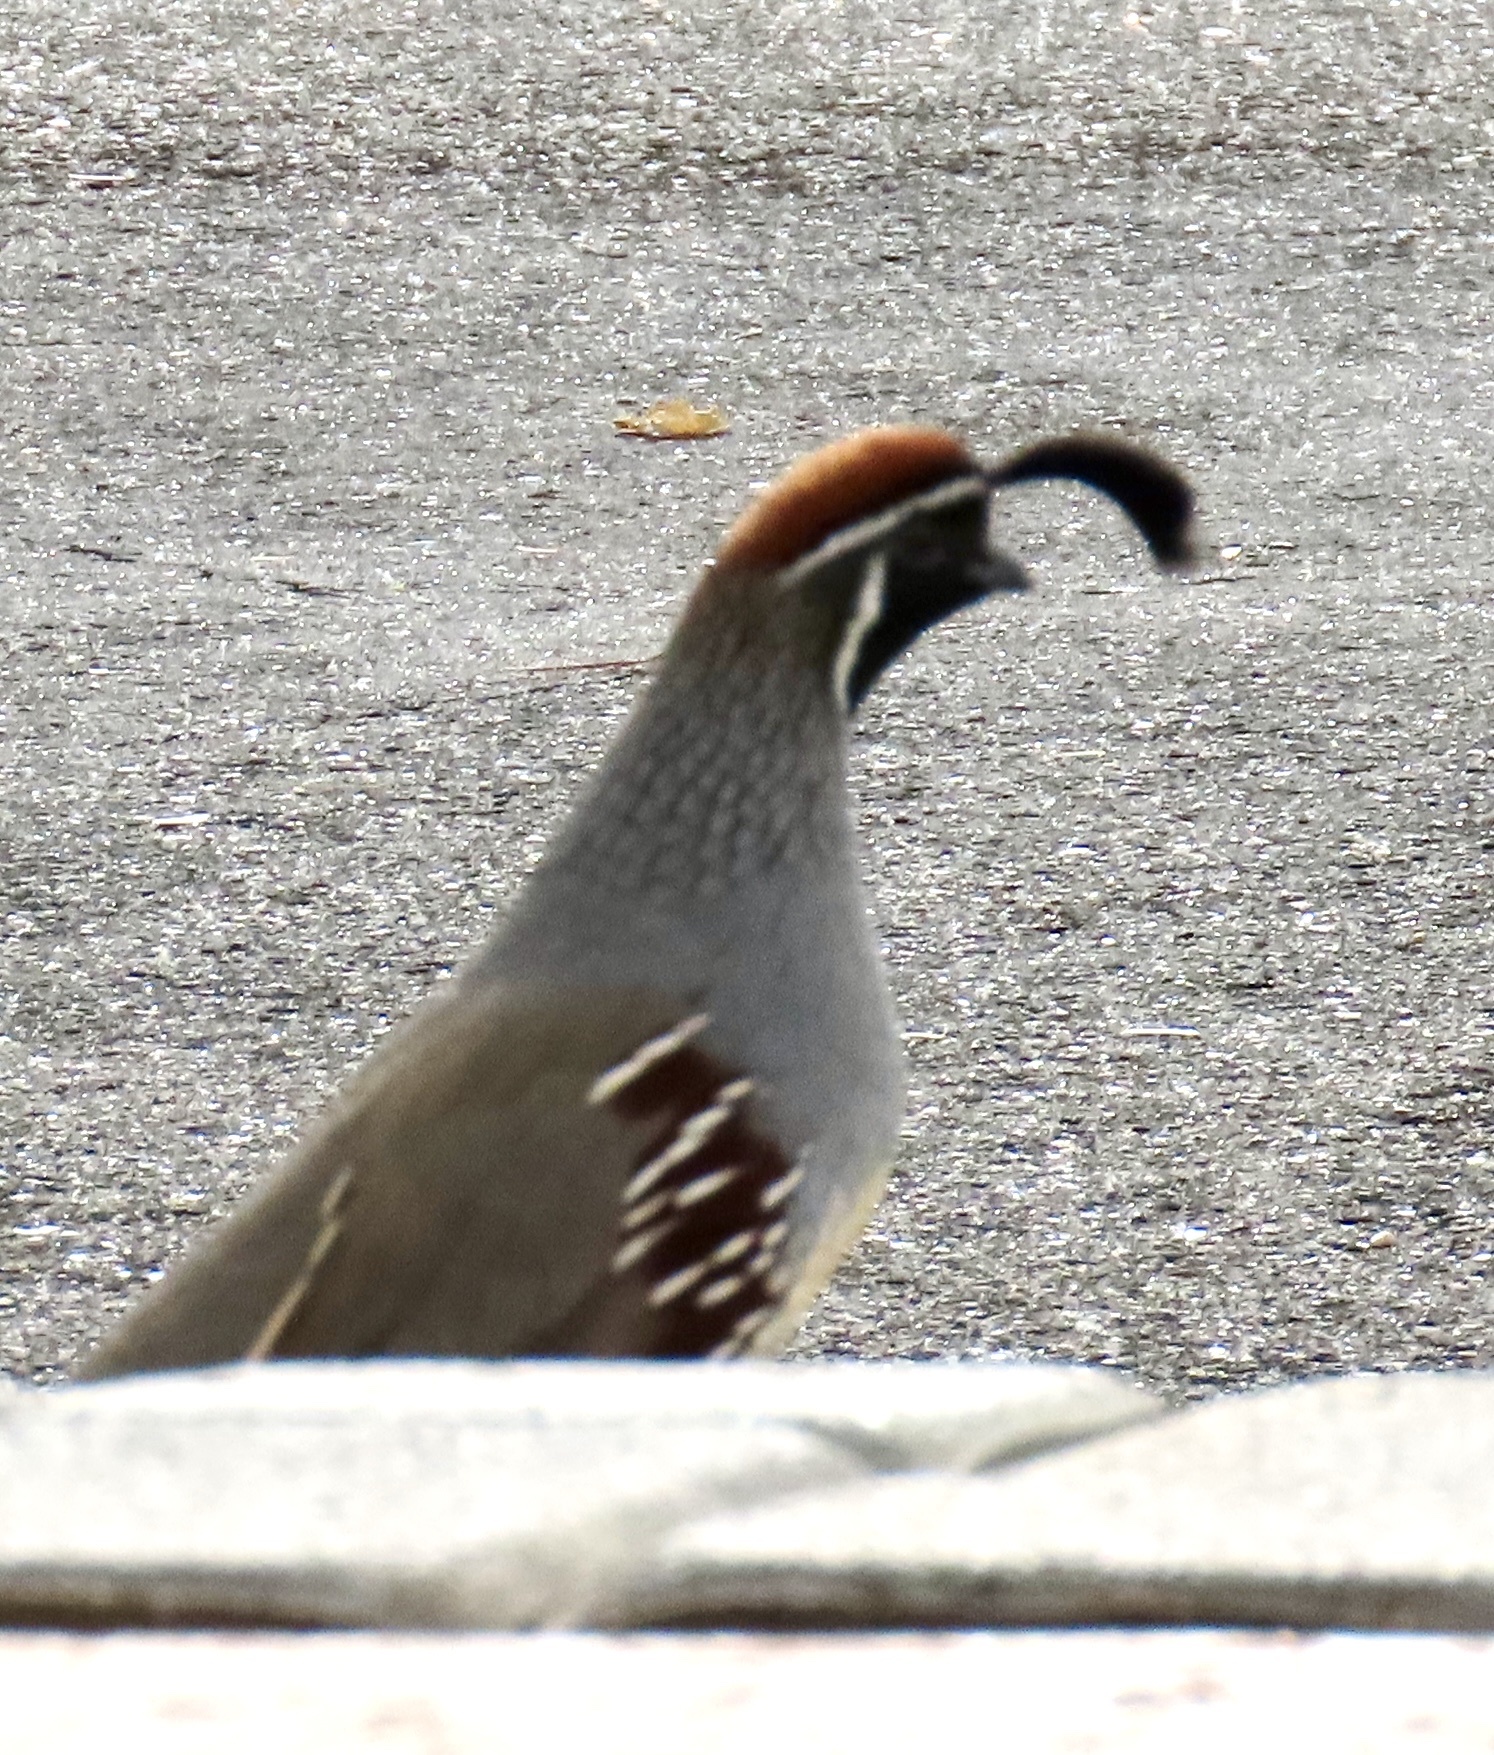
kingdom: Animalia
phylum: Chordata
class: Aves
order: Galliformes
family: Odontophoridae
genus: Callipepla
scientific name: Callipepla gambelii
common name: Gambel's quail
